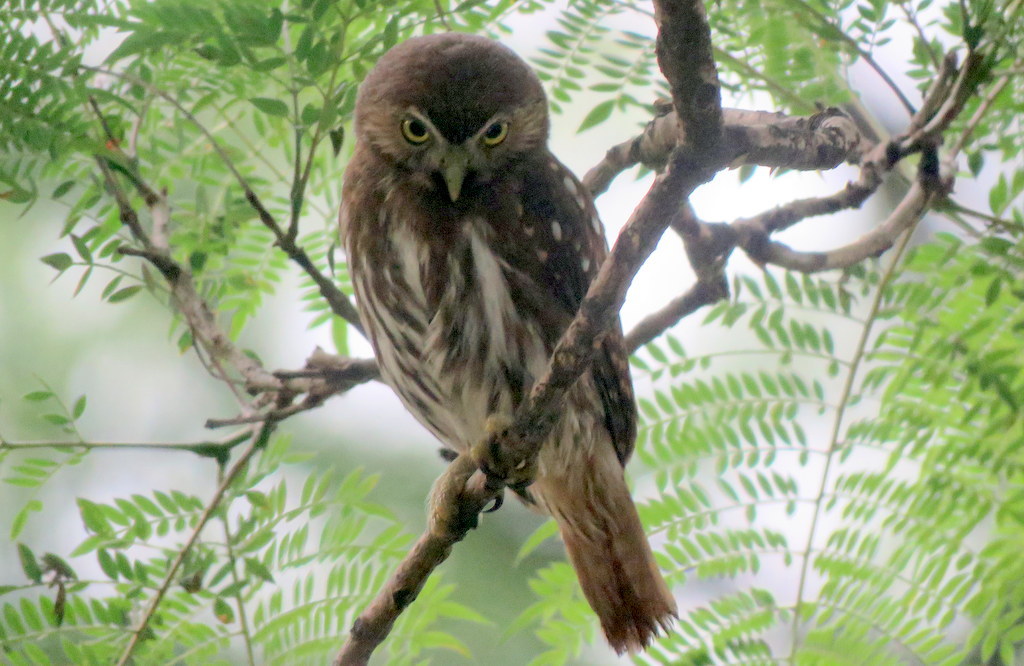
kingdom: Animalia
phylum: Chordata
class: Aves
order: Strigiformes
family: Strigidae
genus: Glaucidium
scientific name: Glaucidium brasilianum
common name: Ferruginous pygmy-owl
